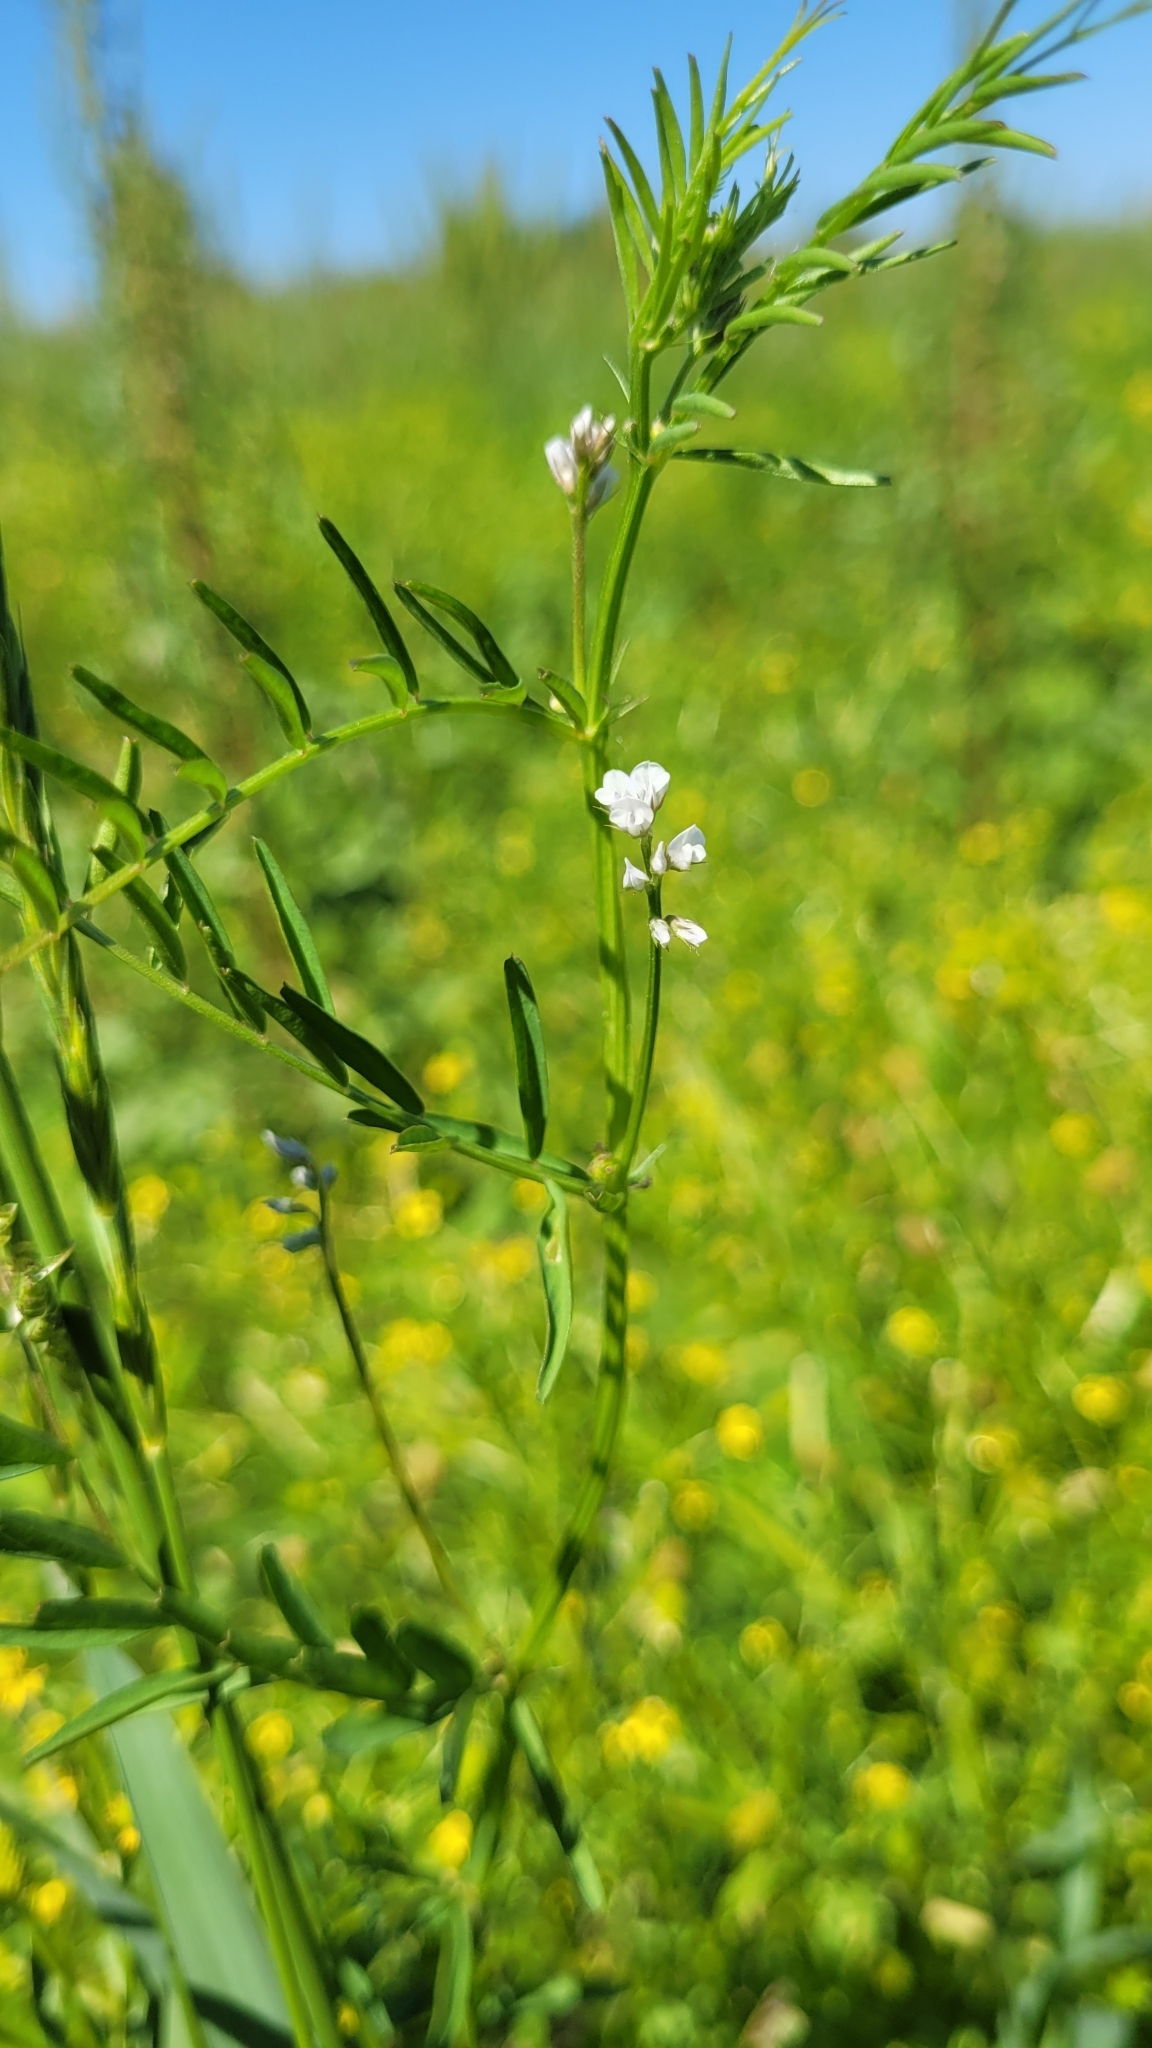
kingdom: Plantae
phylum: Tracheophyta
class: Magnoliopsida
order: Fabales
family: Fabaceae
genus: Vicia
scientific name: Vicia hirsuta
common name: Tiny vetch
